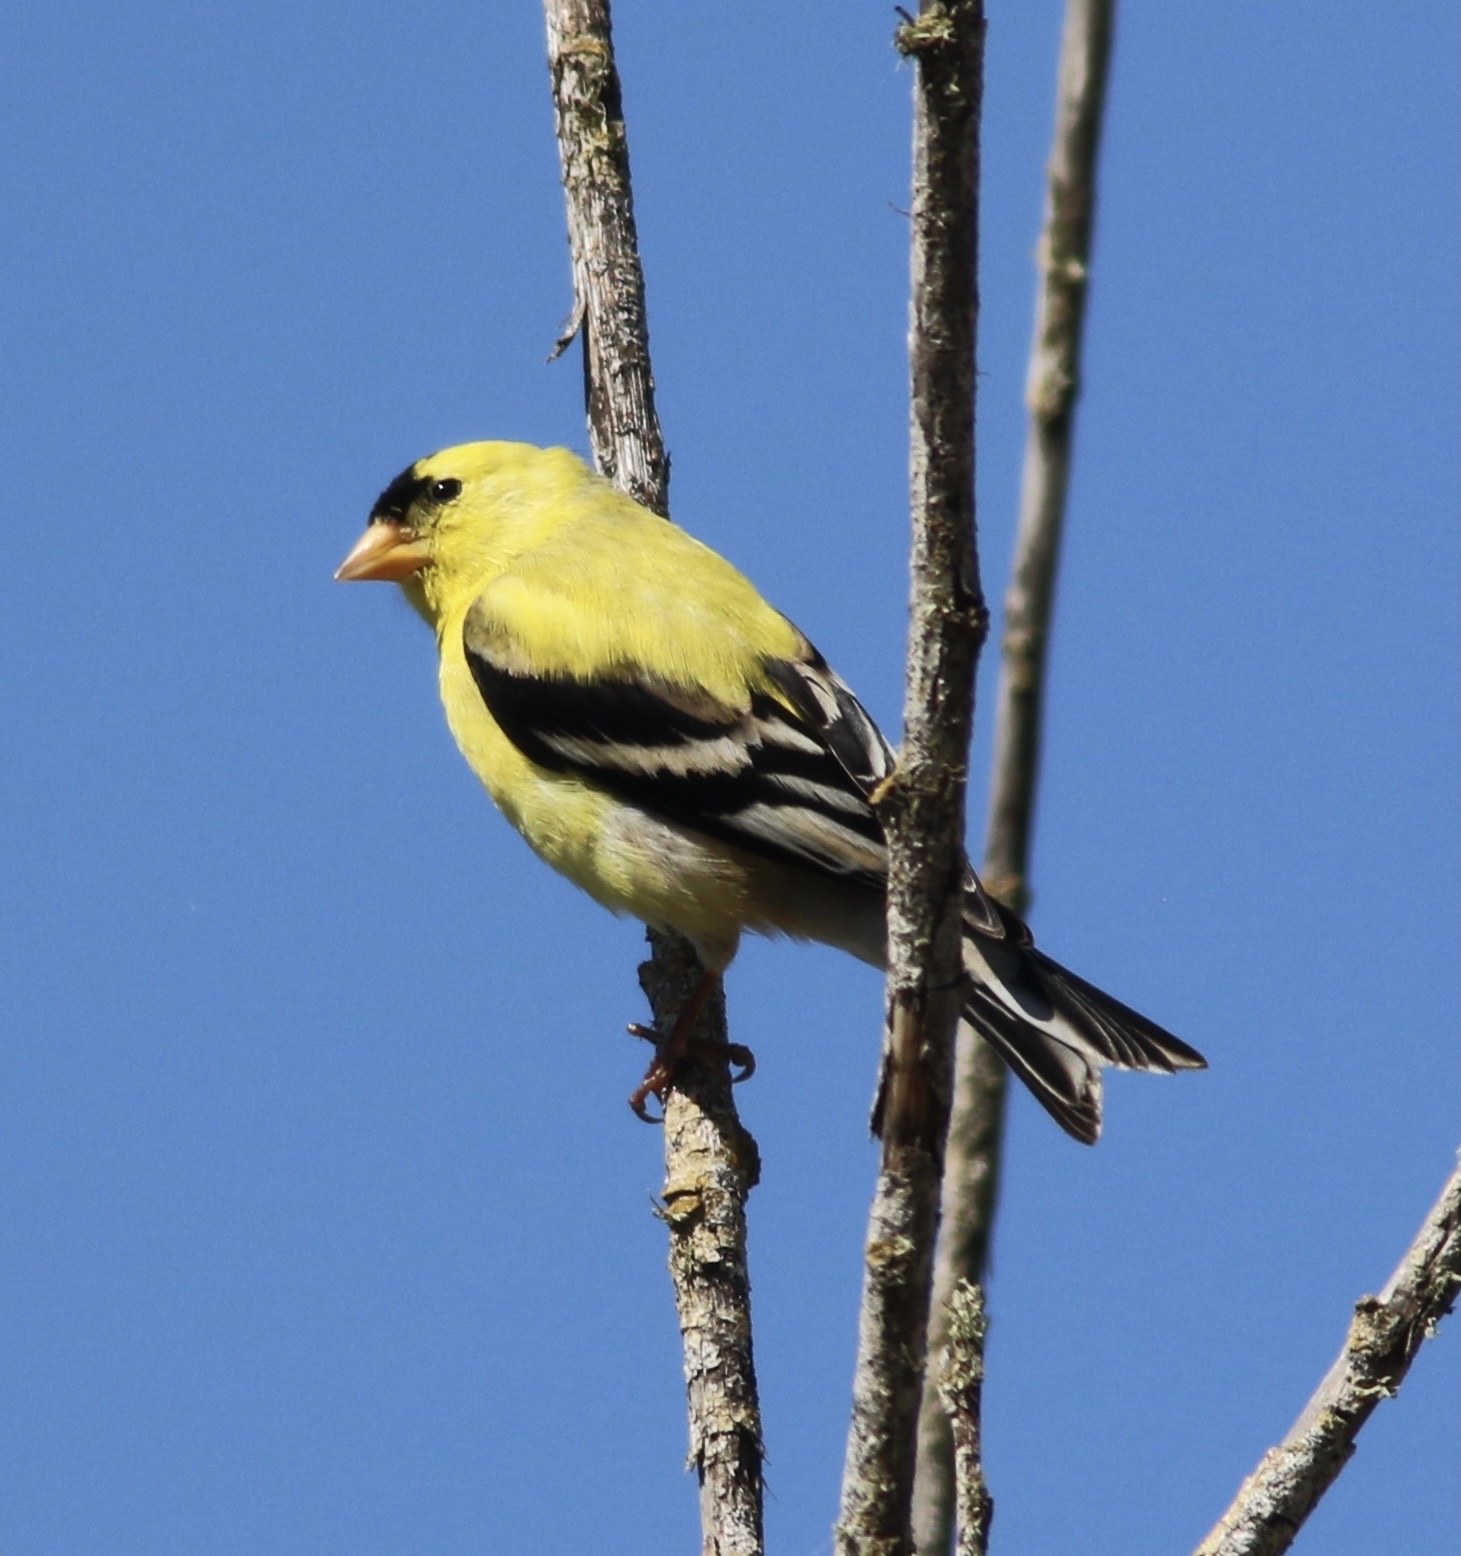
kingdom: Animalia
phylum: Chordata
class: Aves
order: Passeriformes
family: Fringillidae
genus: Spinus
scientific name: Spinus tristis
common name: American goldfinch
